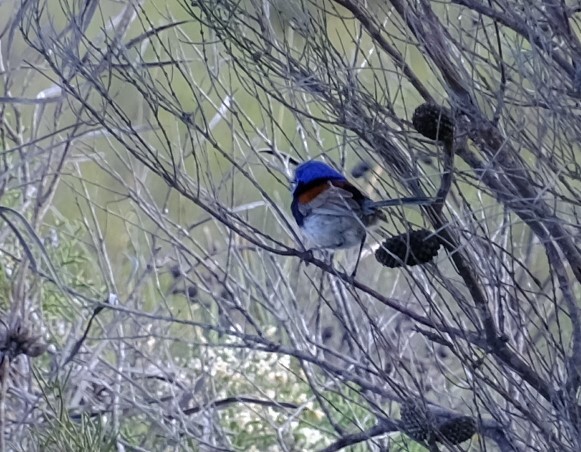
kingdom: Animalia
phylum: Chordata
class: Aves
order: Passeriformes
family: Maluridae
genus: Malurus
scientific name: Malurus pulcherrimus
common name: Blue-breasted fairywren
